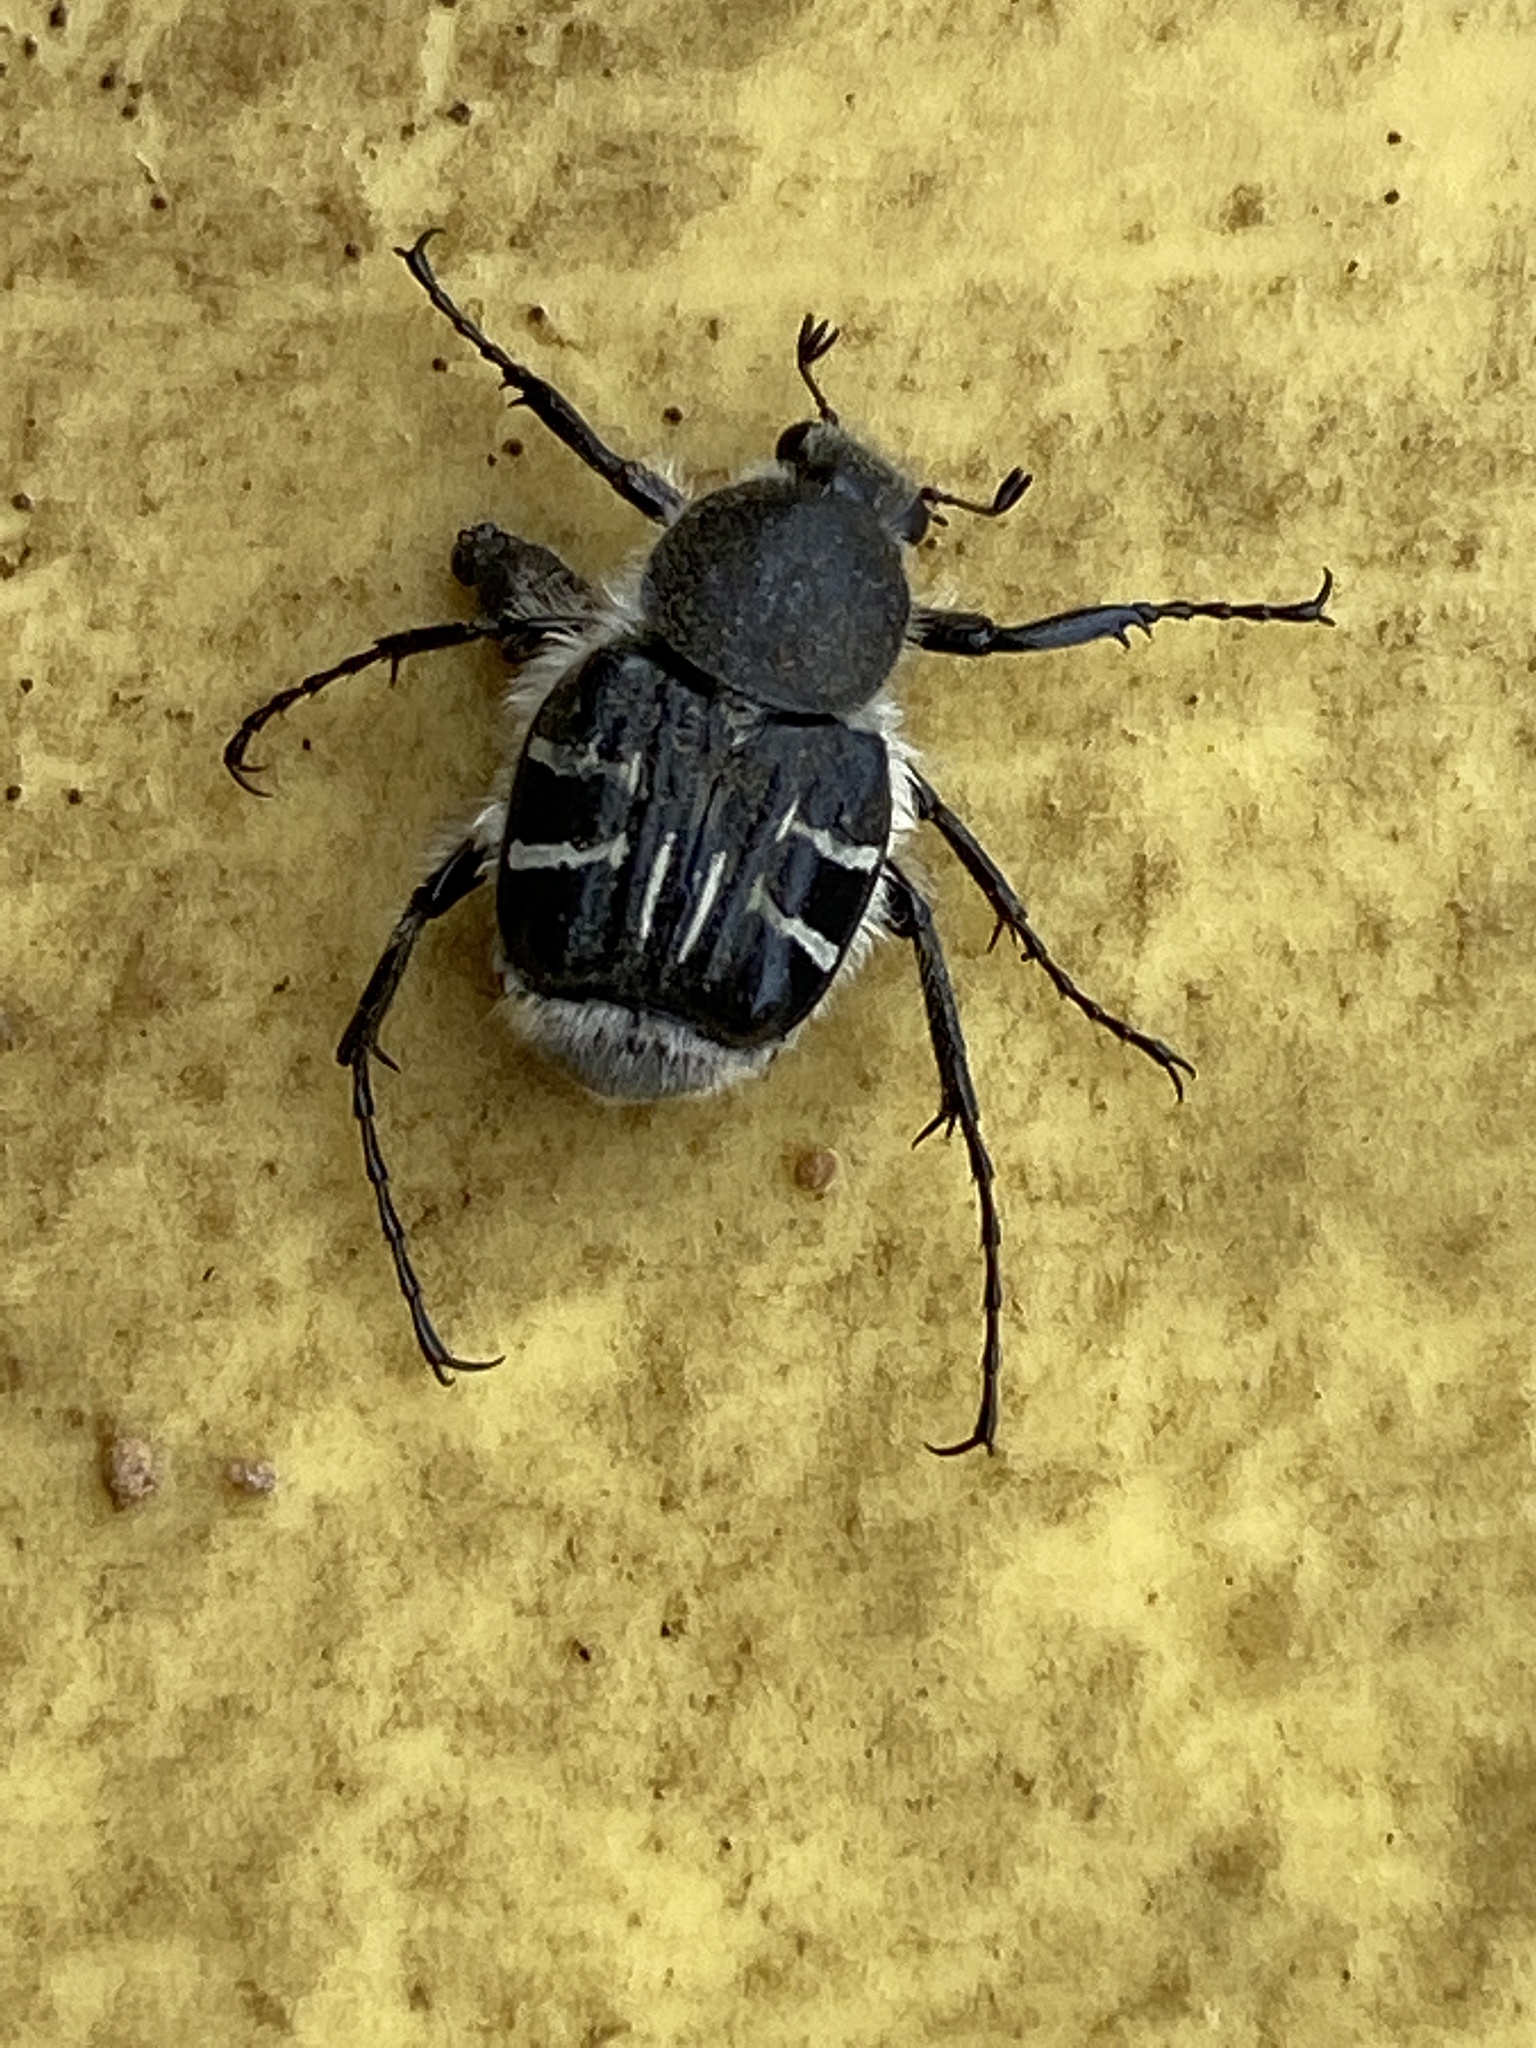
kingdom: Animalia
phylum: Arthropoda
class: Insecta
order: Coleoptera
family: Scarabaeidae
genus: Trichiotinus
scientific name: Trichiotinus texanus
